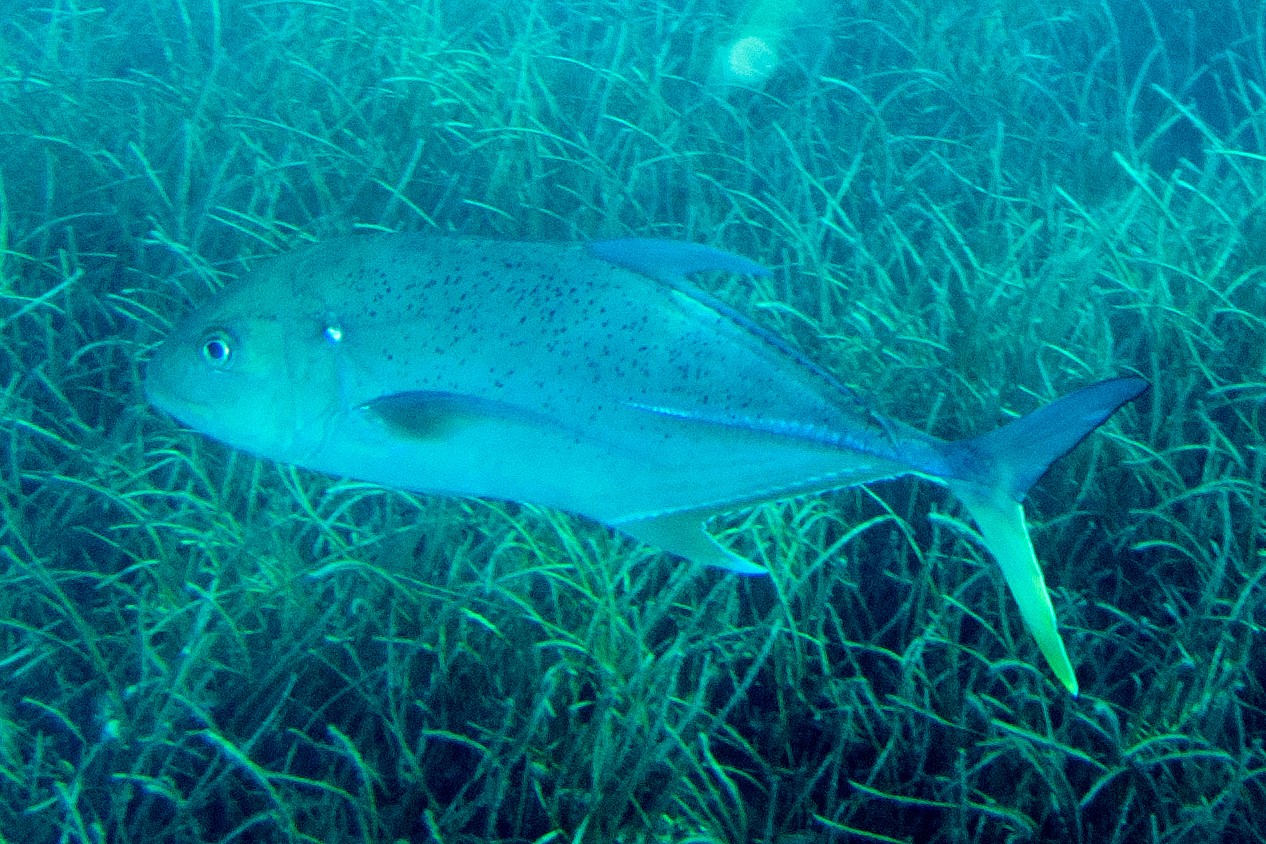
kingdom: Animalia
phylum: Chordata
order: Perciformes
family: Carangidae
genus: Caranx
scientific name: Caranx papuensis
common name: Brassy trevally
